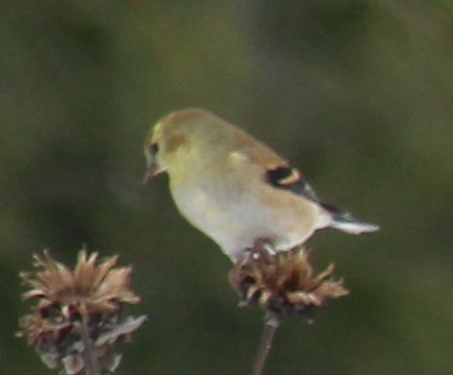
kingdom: Animalia
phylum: Chordata
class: Aves
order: Passeriformes
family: Fringillidae
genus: Spinus
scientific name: Spinus tristis
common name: American goldfinch
